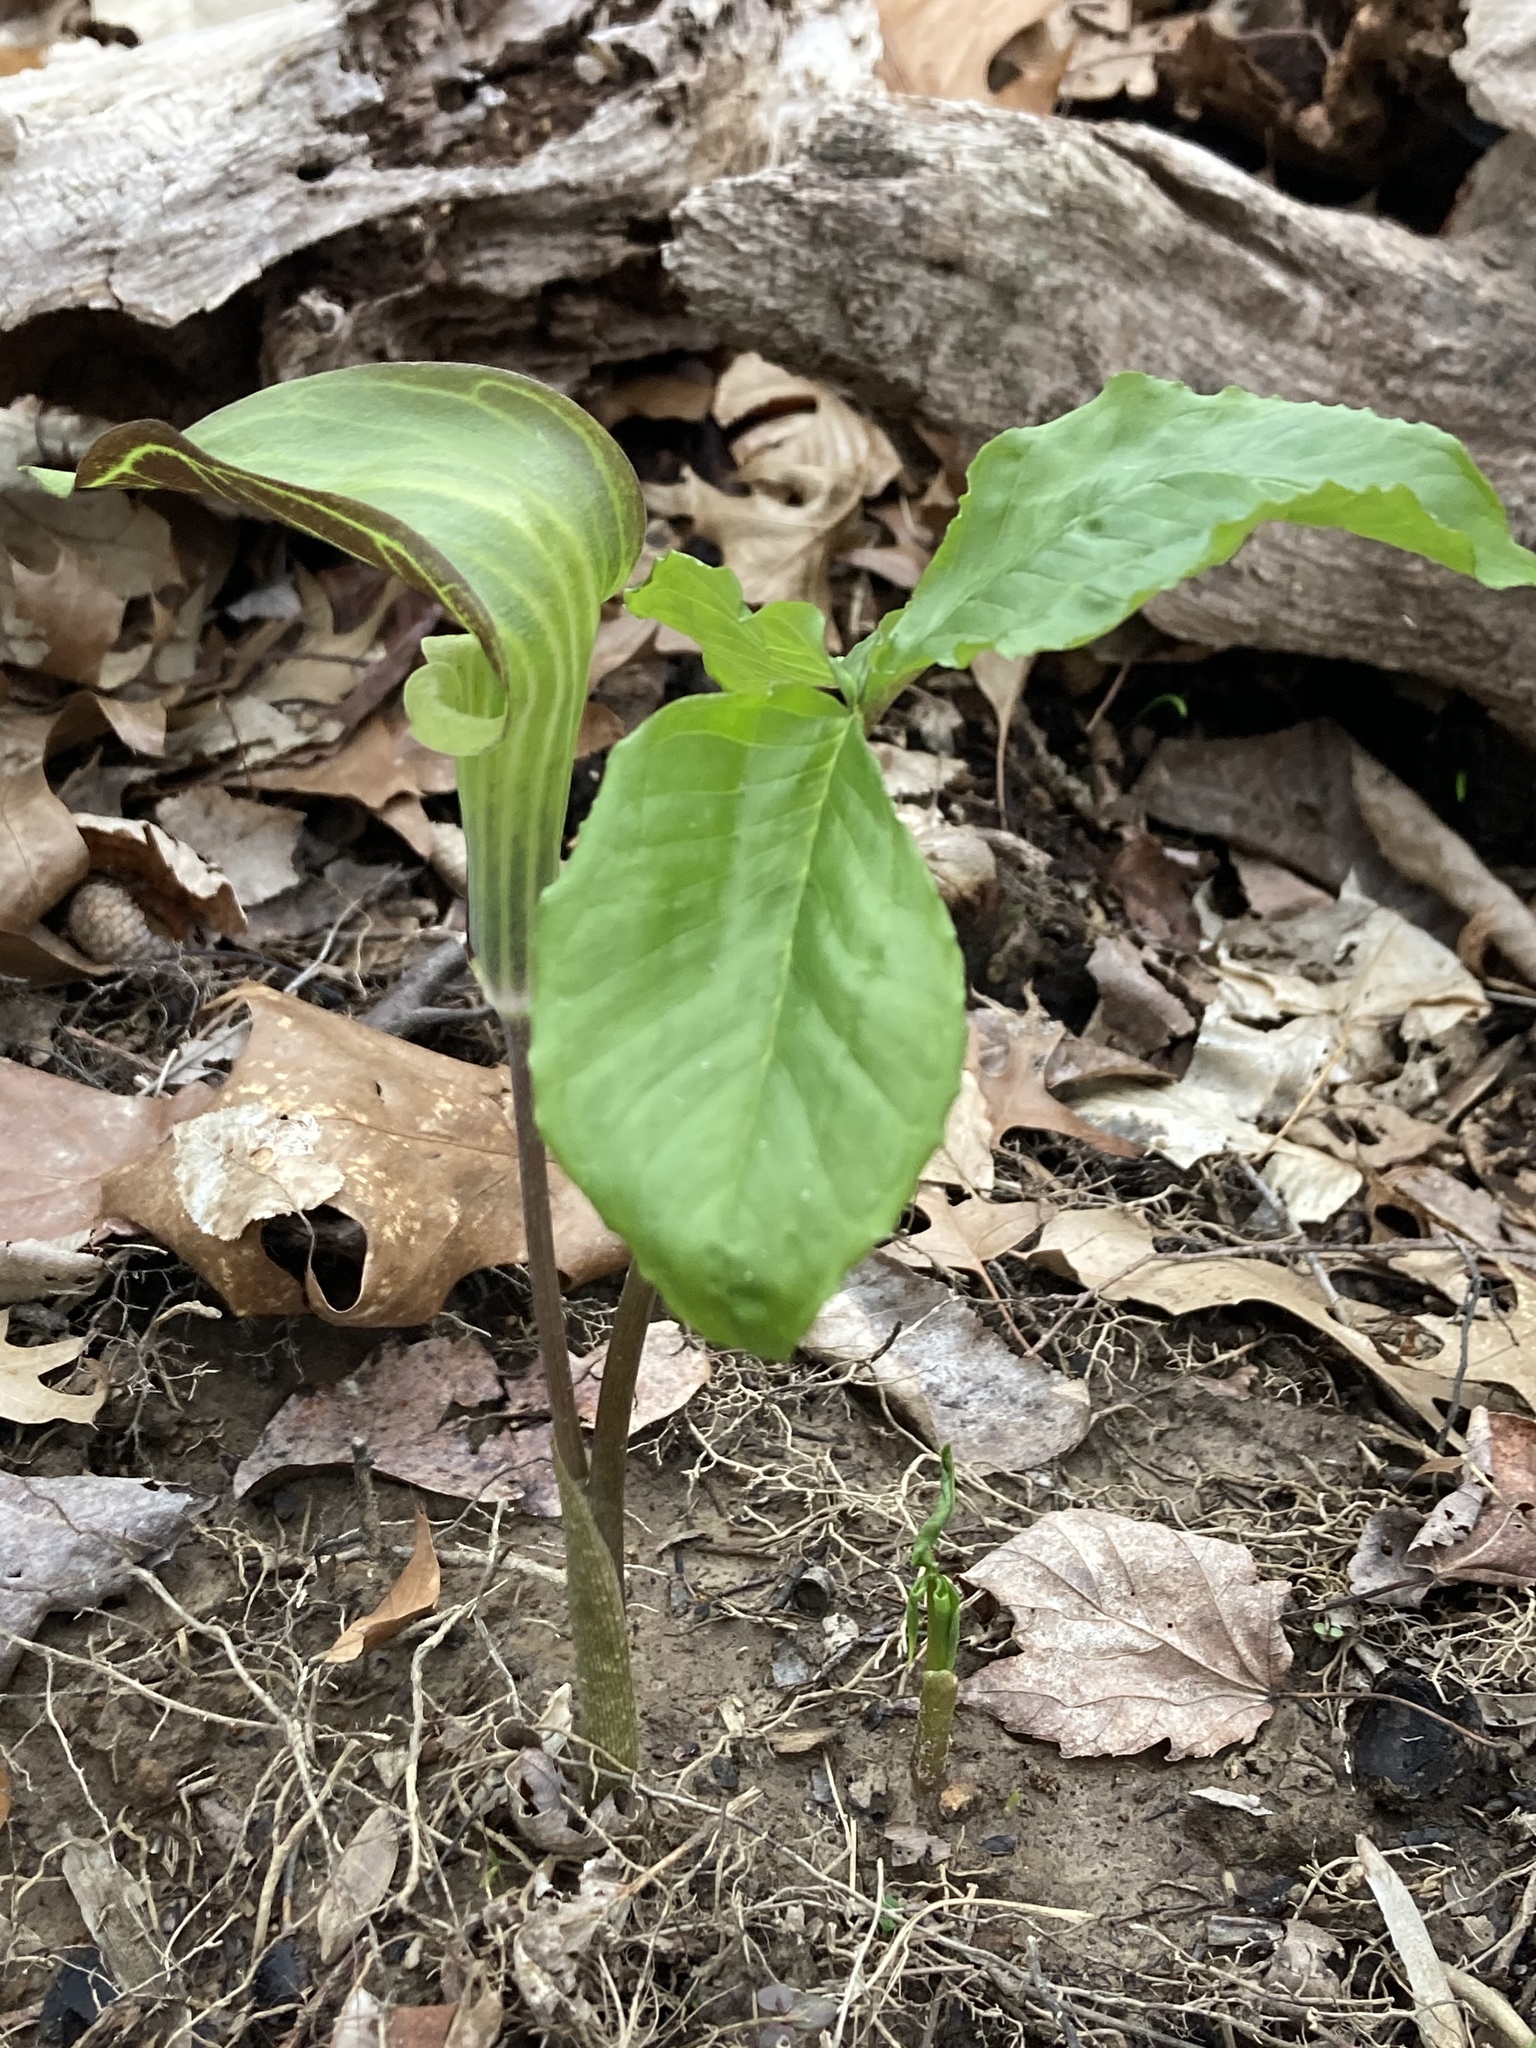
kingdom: Plantae
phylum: Tracheophyta
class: Liliopsida
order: Alismatales
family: Araceae
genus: Arisaema
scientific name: Arisaema triphyllum
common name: Jack-in-the-pulpit
